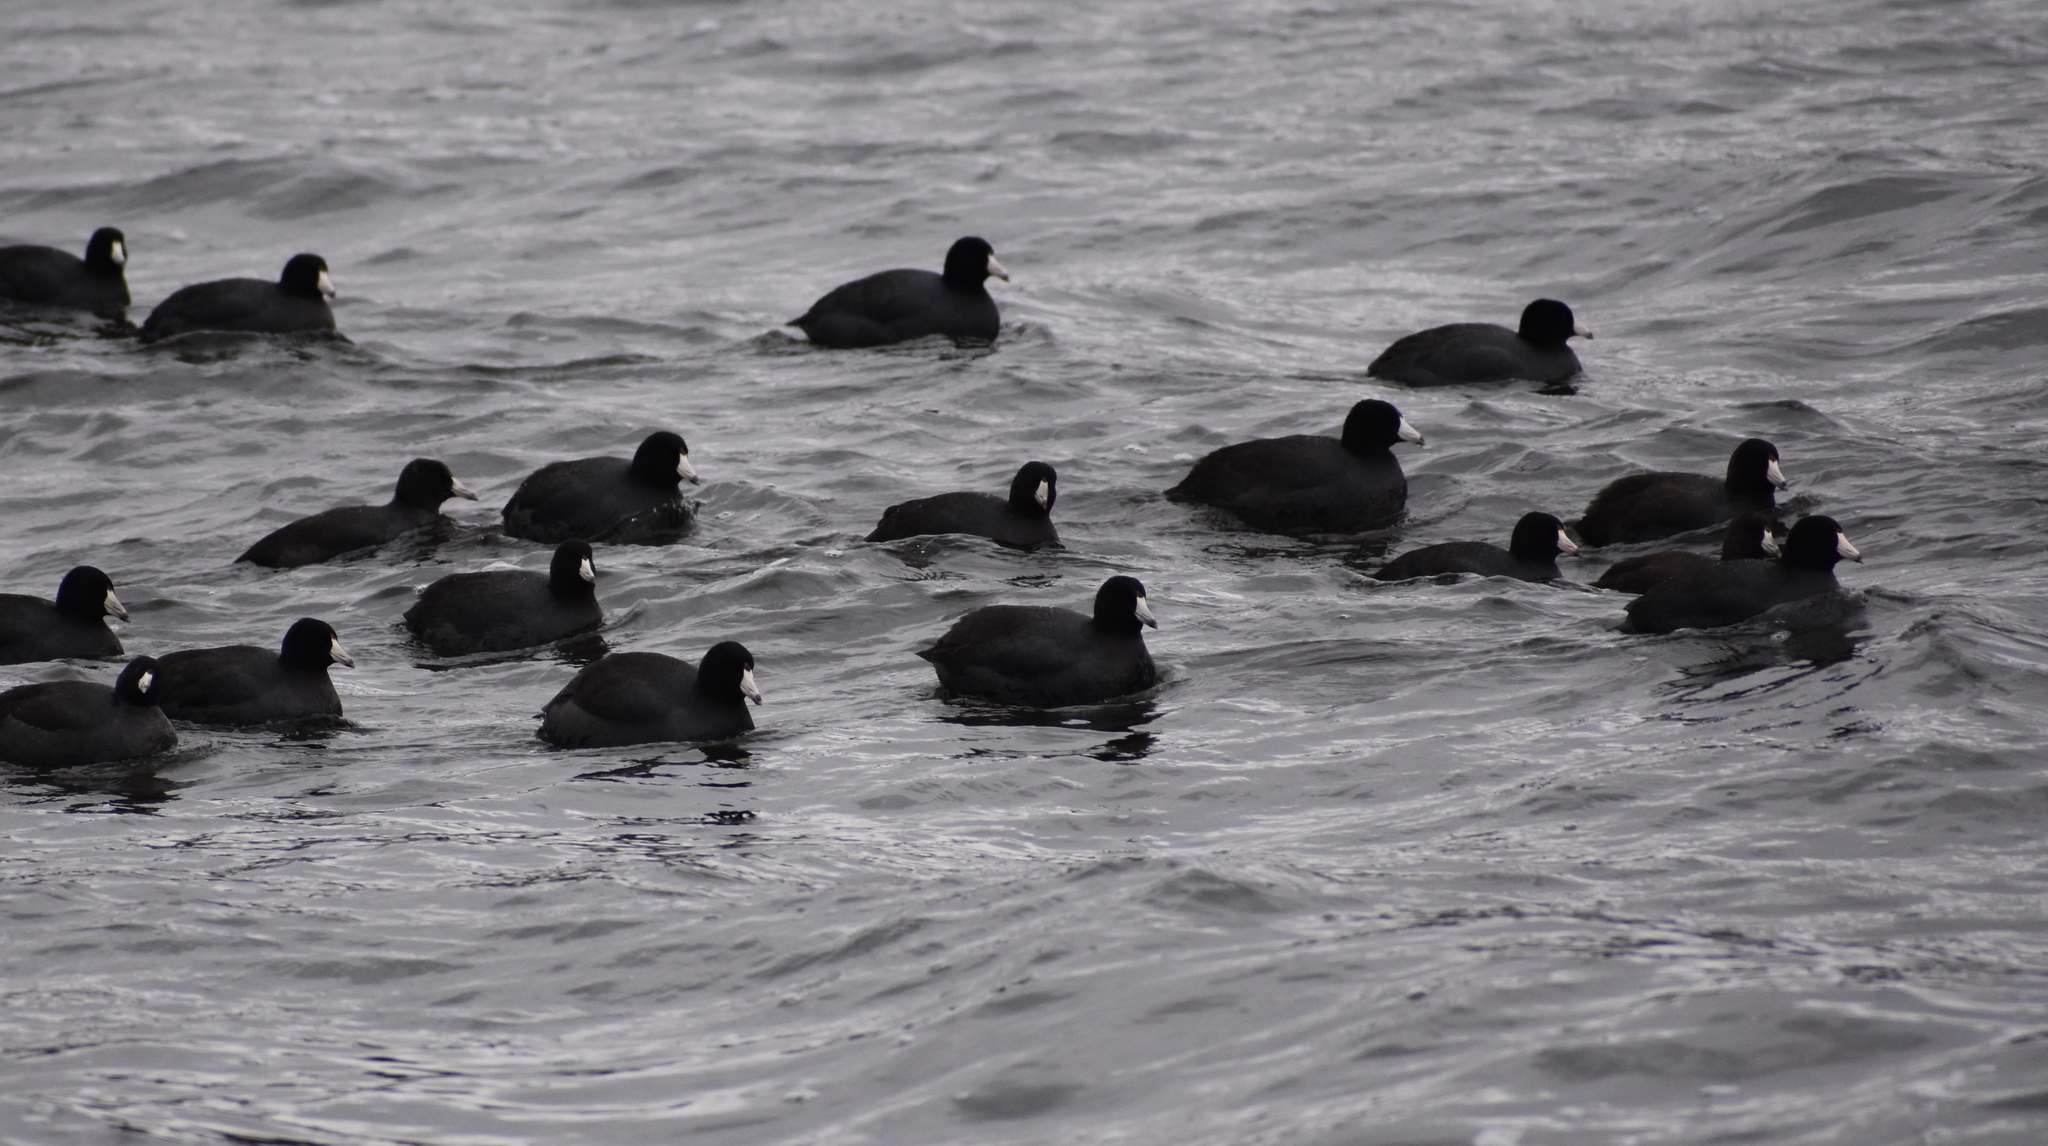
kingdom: Animalia
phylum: Chordata
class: Aves
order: Gruiformes
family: Rallidae
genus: Fulica
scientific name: Fulica americana
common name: American coot
